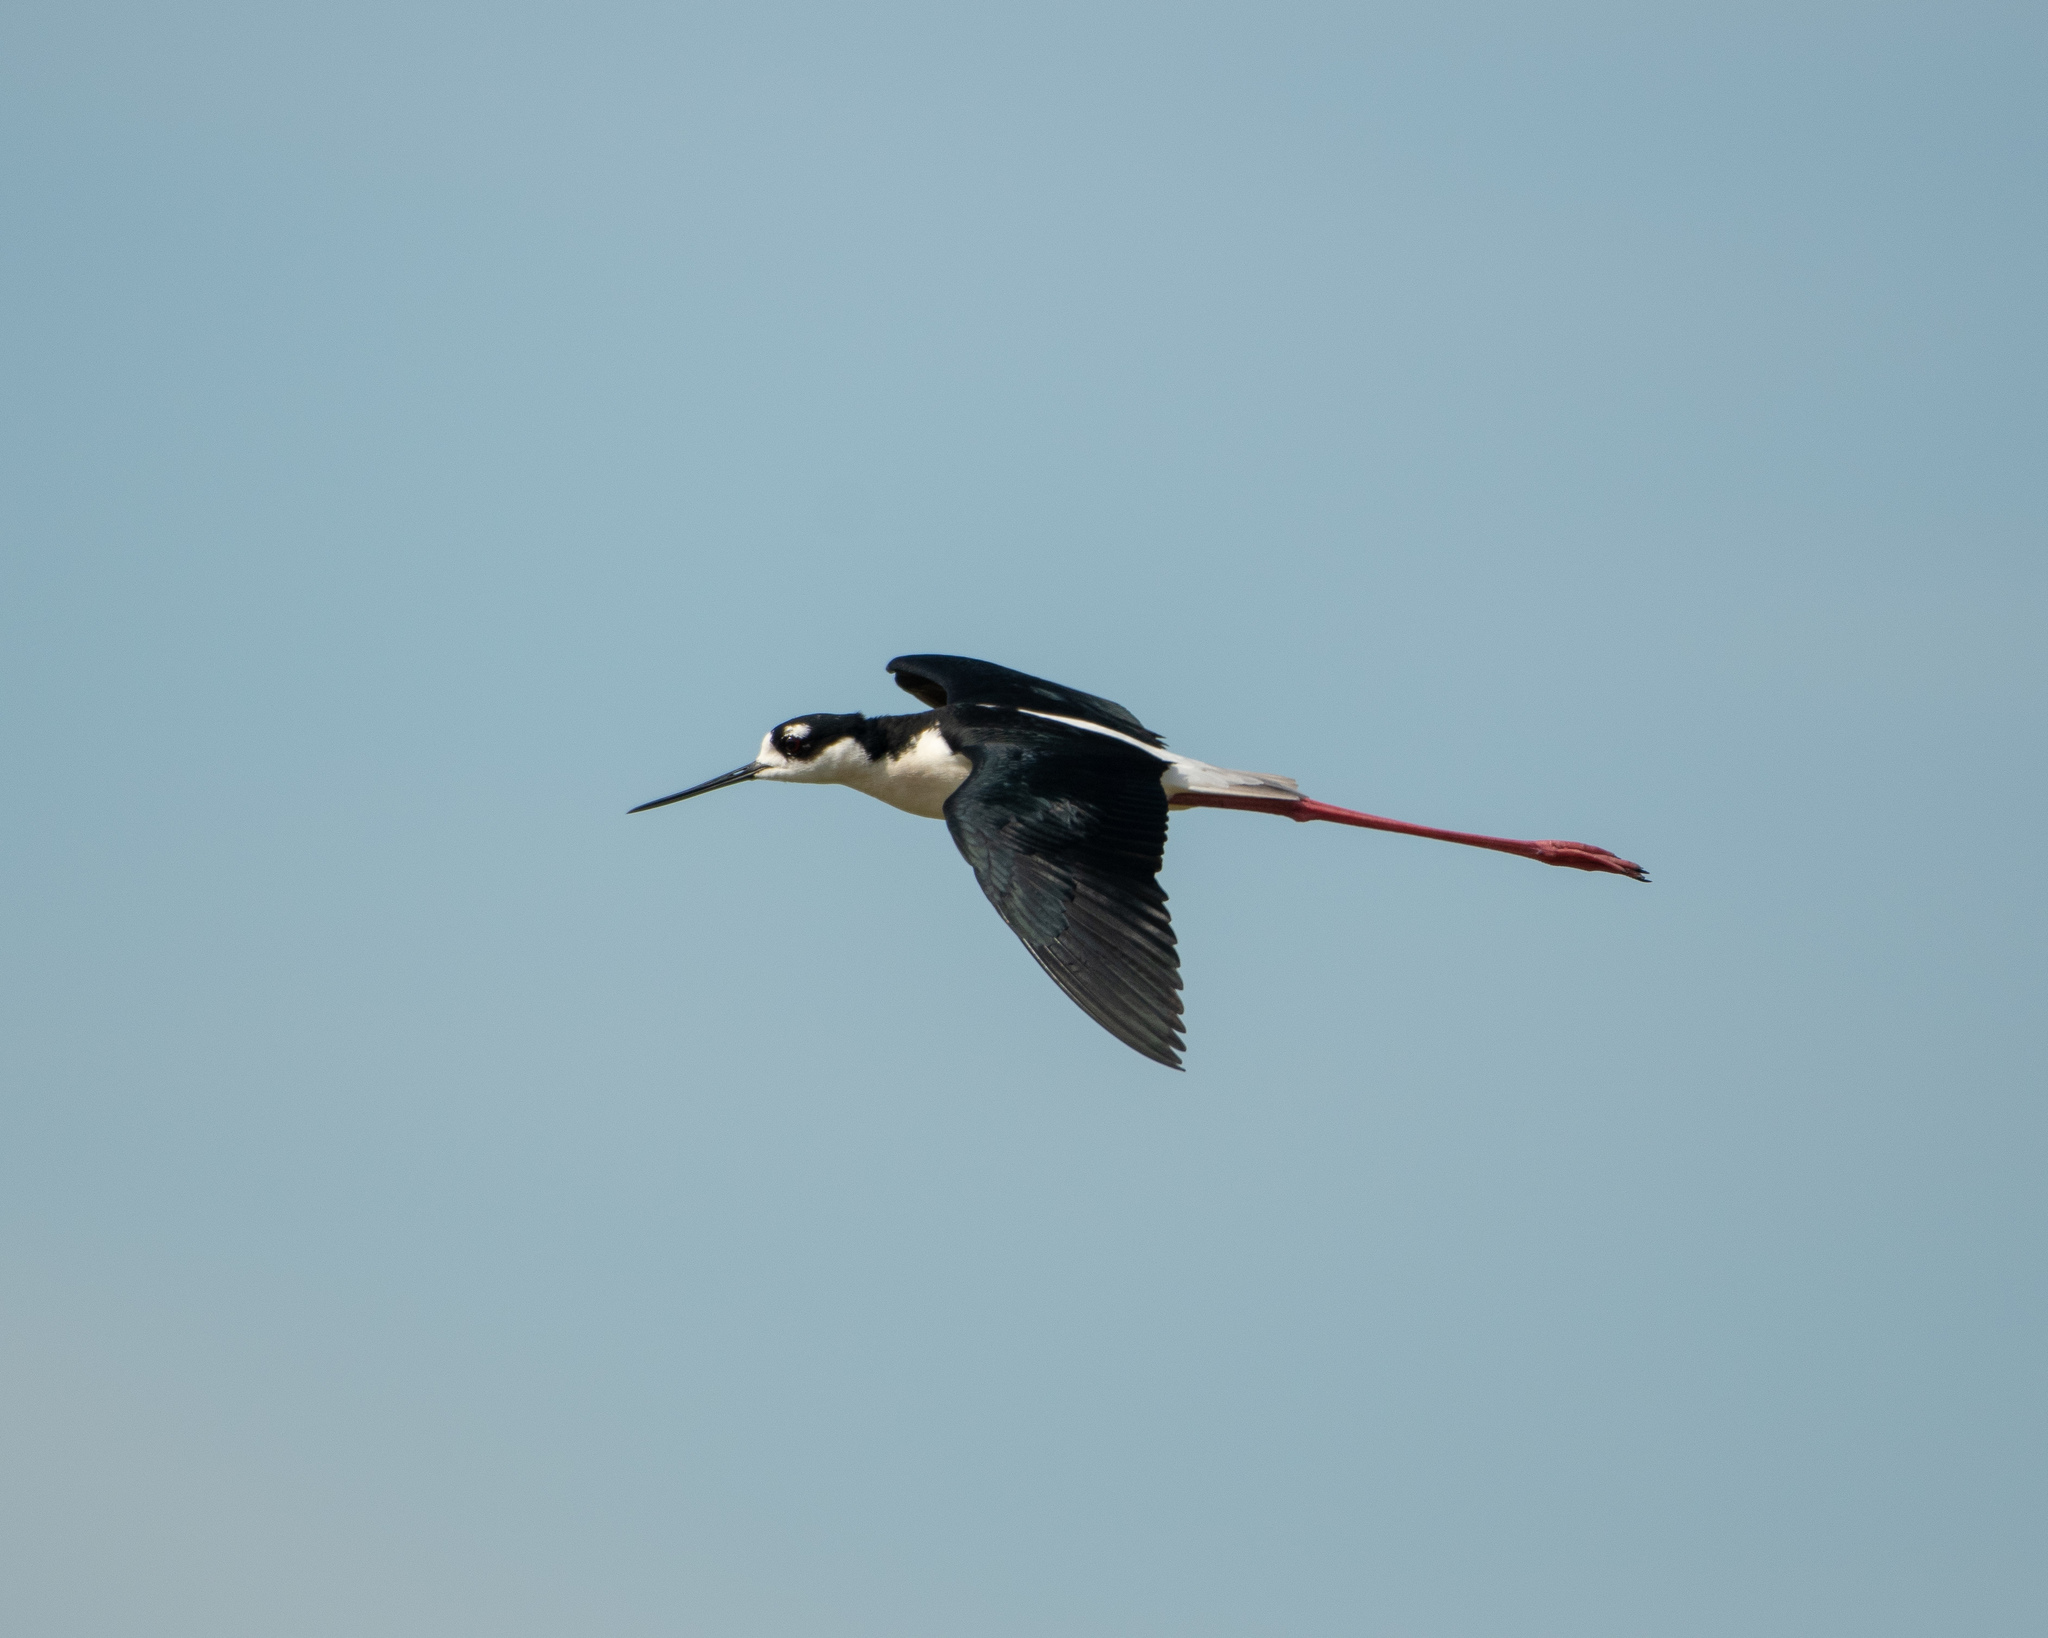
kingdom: Animalia
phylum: Chordata
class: Aves
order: Charadriiformes
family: Recurvirostridae
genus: Himantopus
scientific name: Himantopus mexicanus
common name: Black-necked stilt
